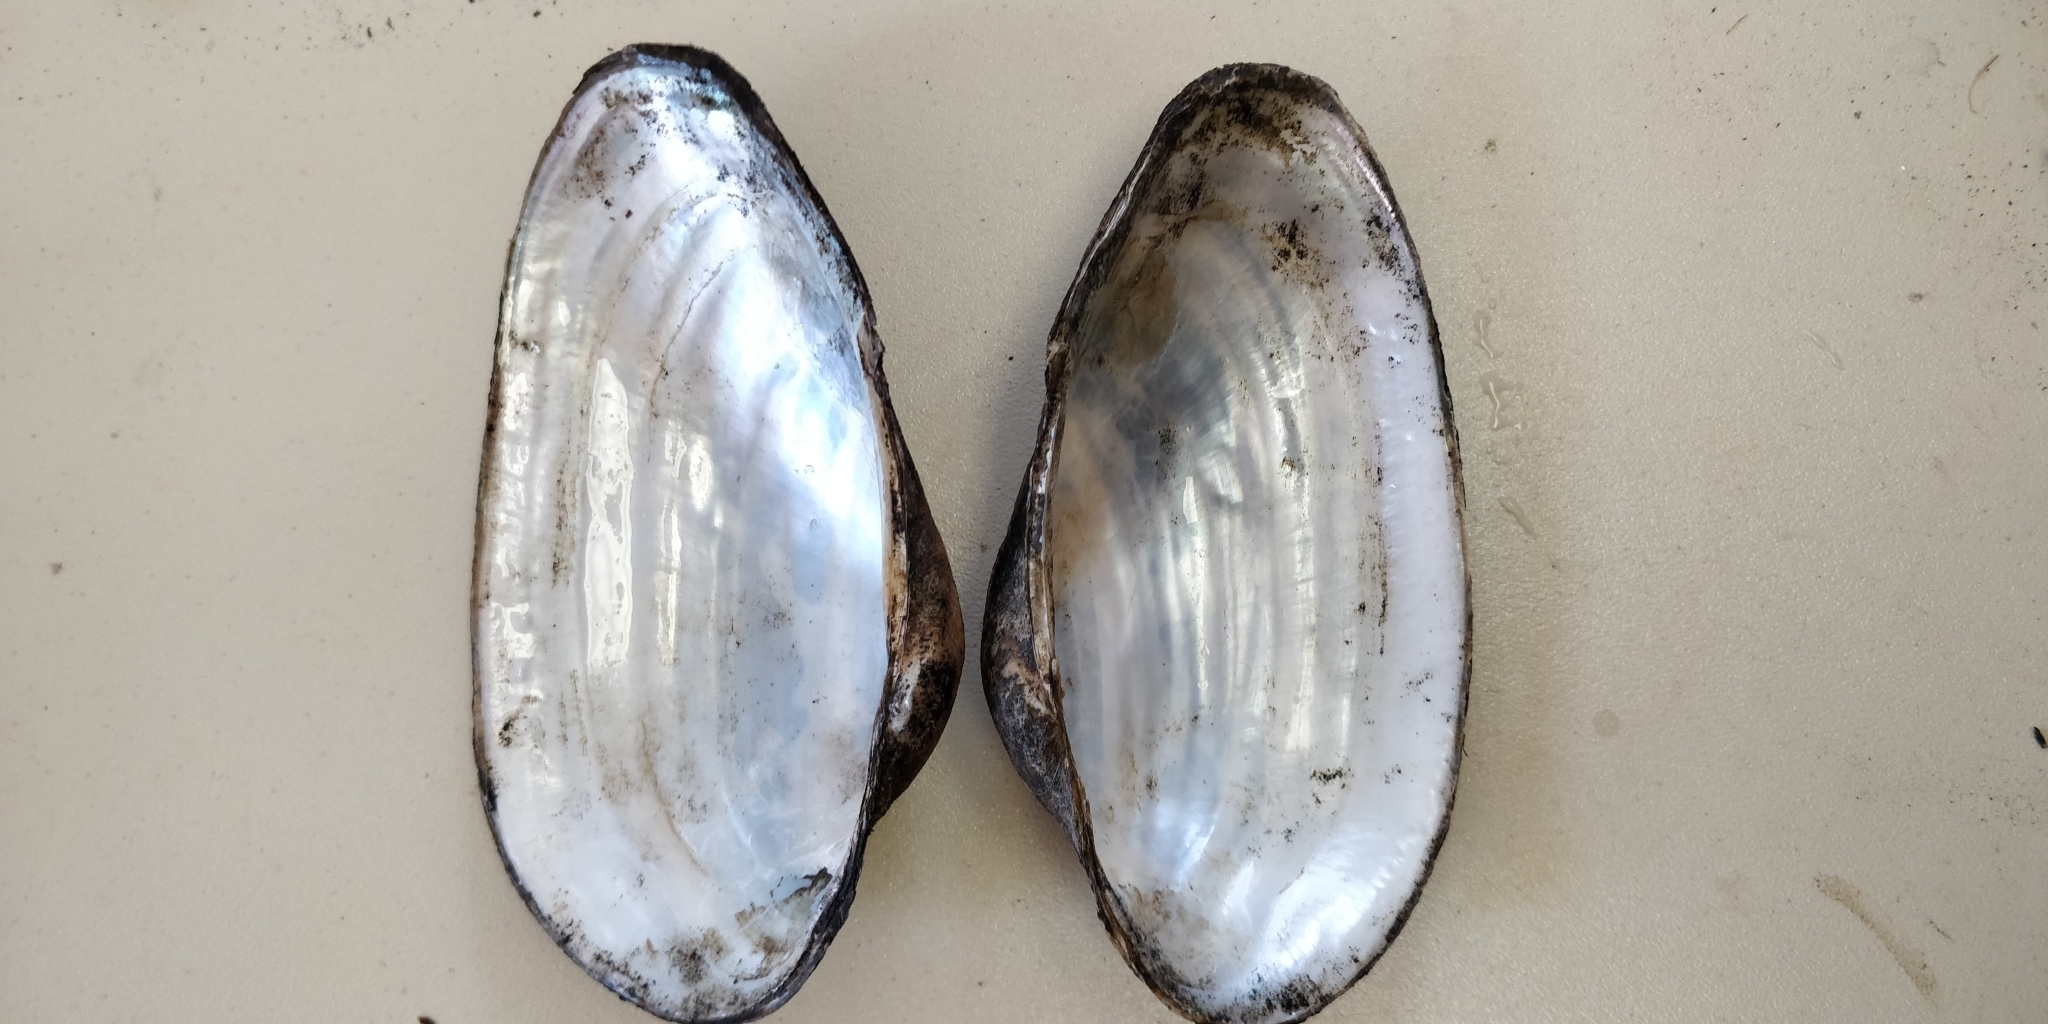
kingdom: Animalia
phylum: Mollusca
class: Bivalvia
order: Unionida
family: Unionidae
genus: Pyganodon
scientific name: Pyganodon grandis
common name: Giant floater
